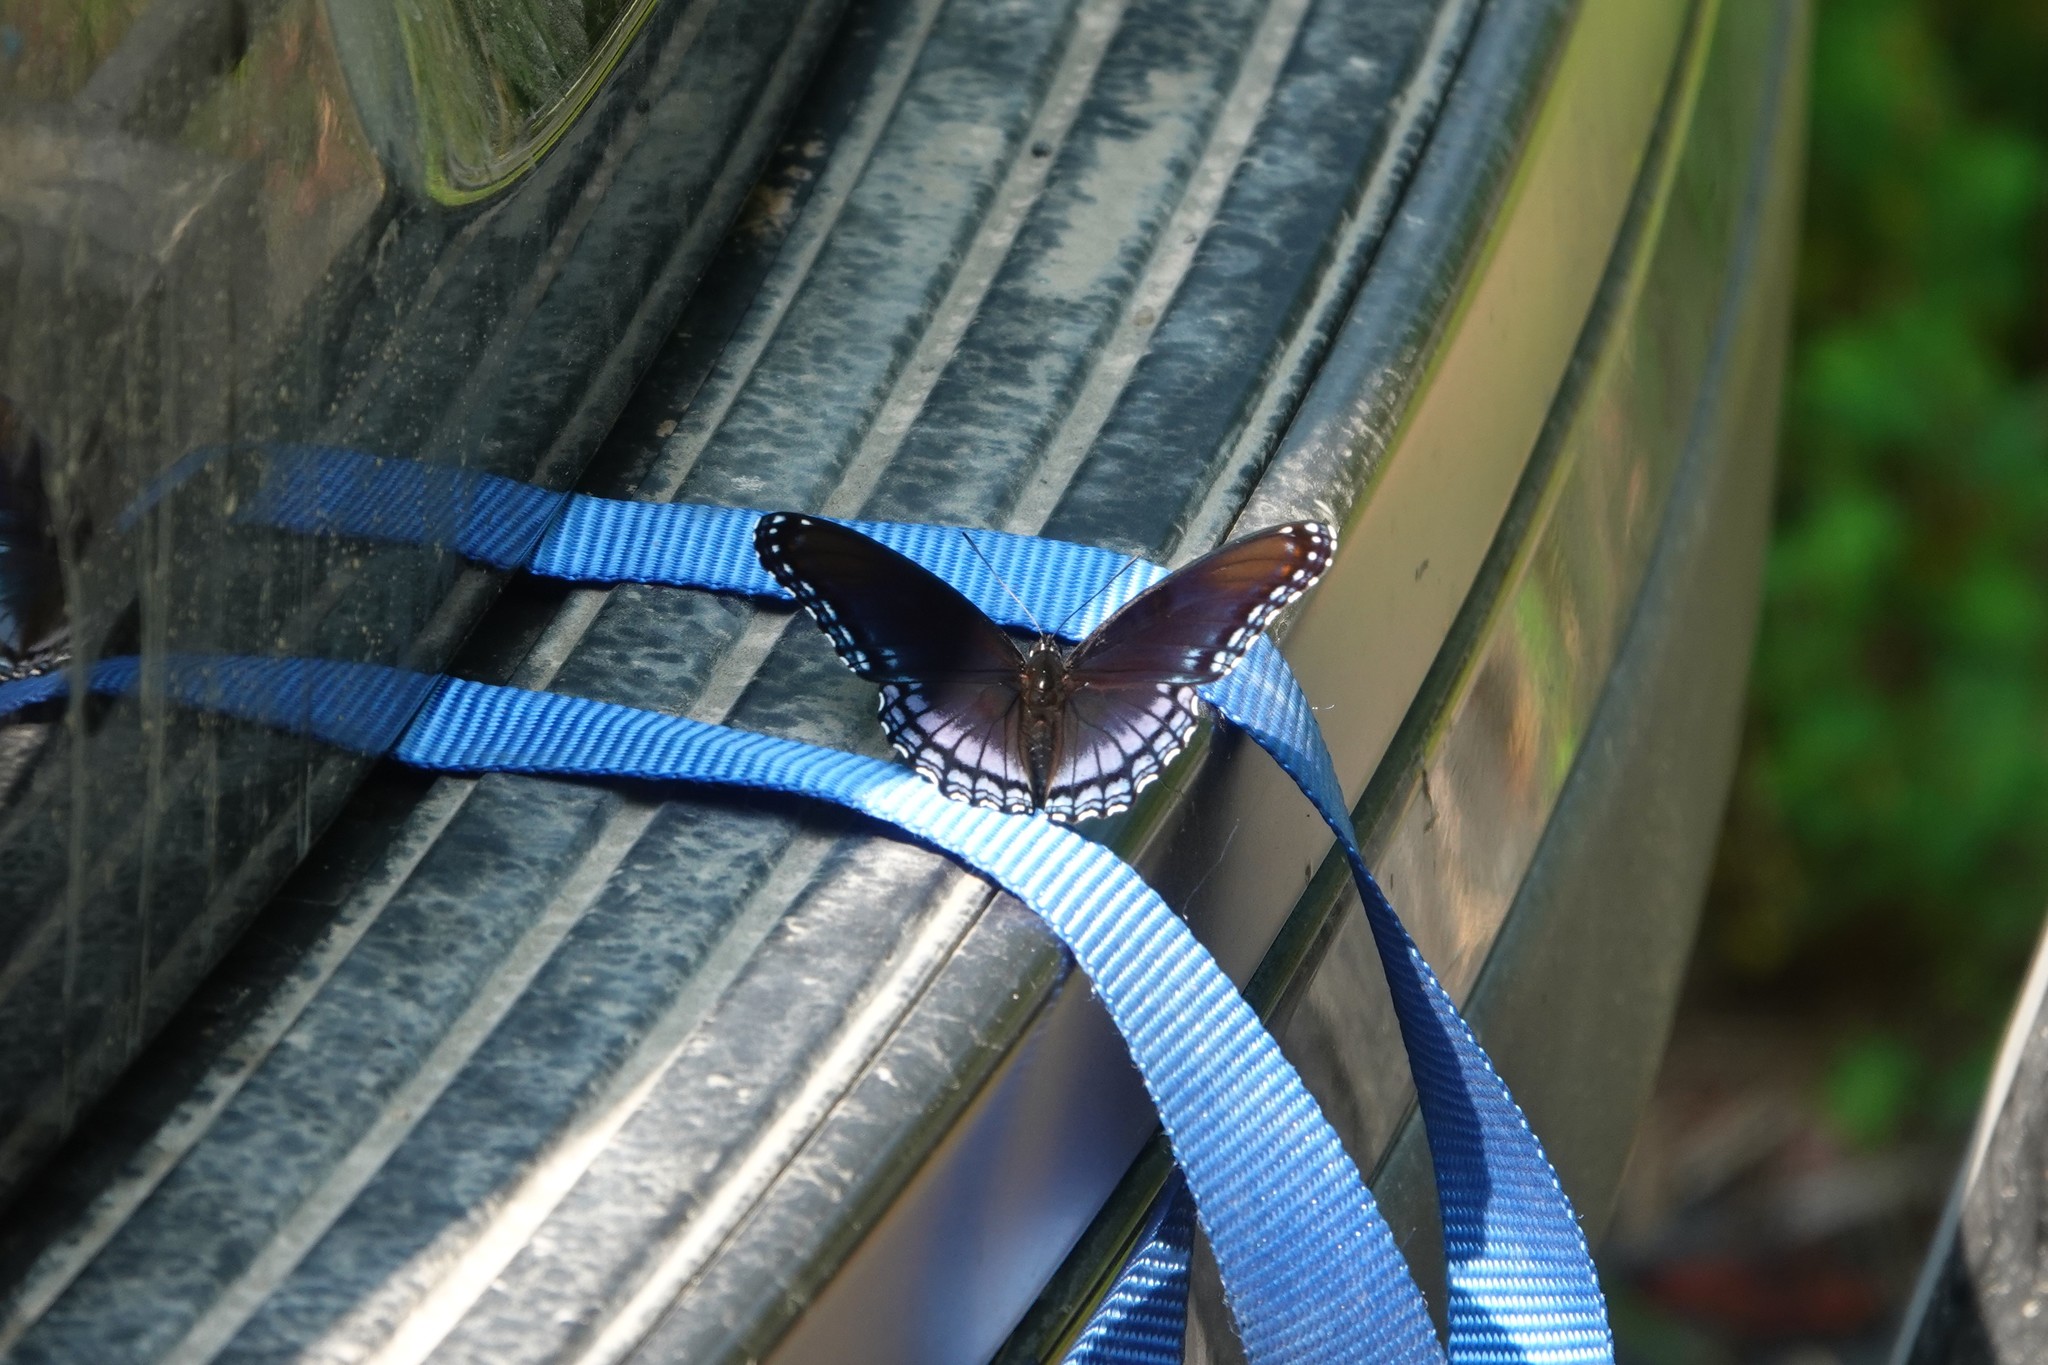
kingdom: Animalia
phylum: Arthropoda
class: Insecta
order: Lepidoptera
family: Nymphalidae
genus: Limenitis
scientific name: Limenitis arthemis
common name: Red-spotted admiral
